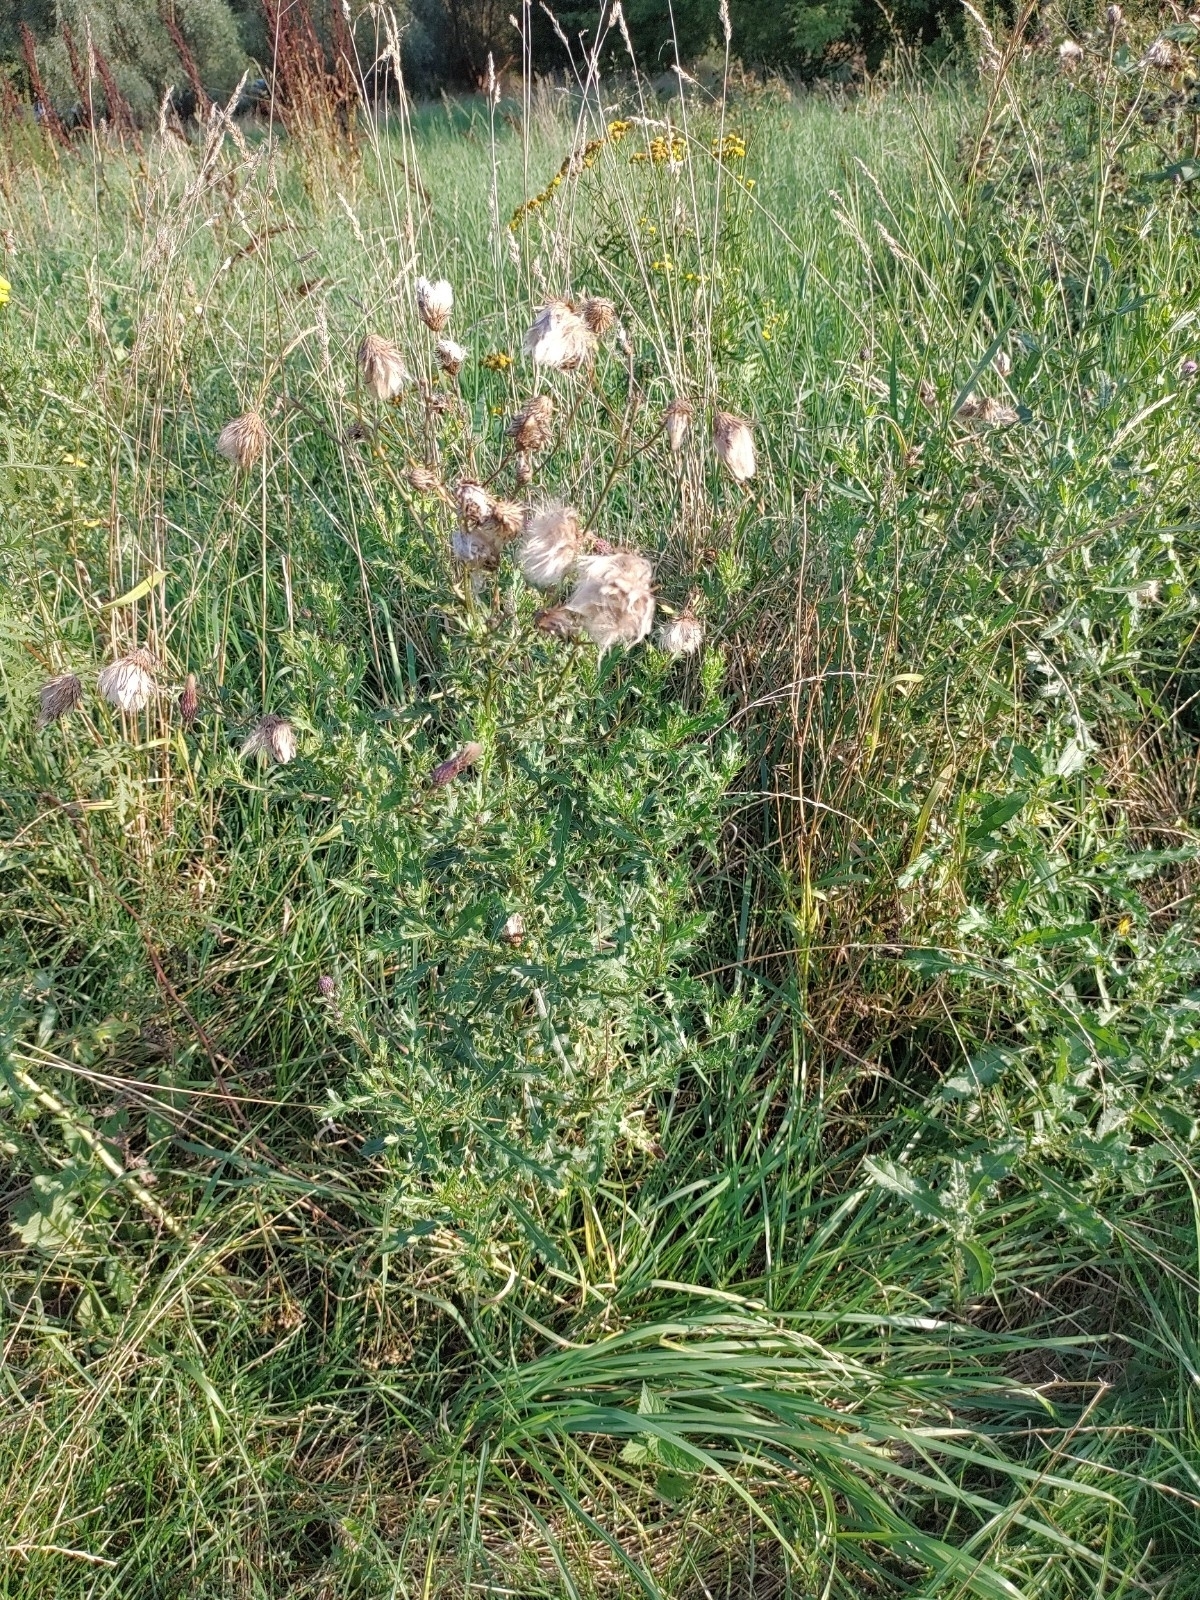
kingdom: Plantae
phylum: Tracheophyta
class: Magnoliopsida
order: Asterales
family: Asteraceae
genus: Cirsium
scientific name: Cirsium arvense
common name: Creeping thistle
